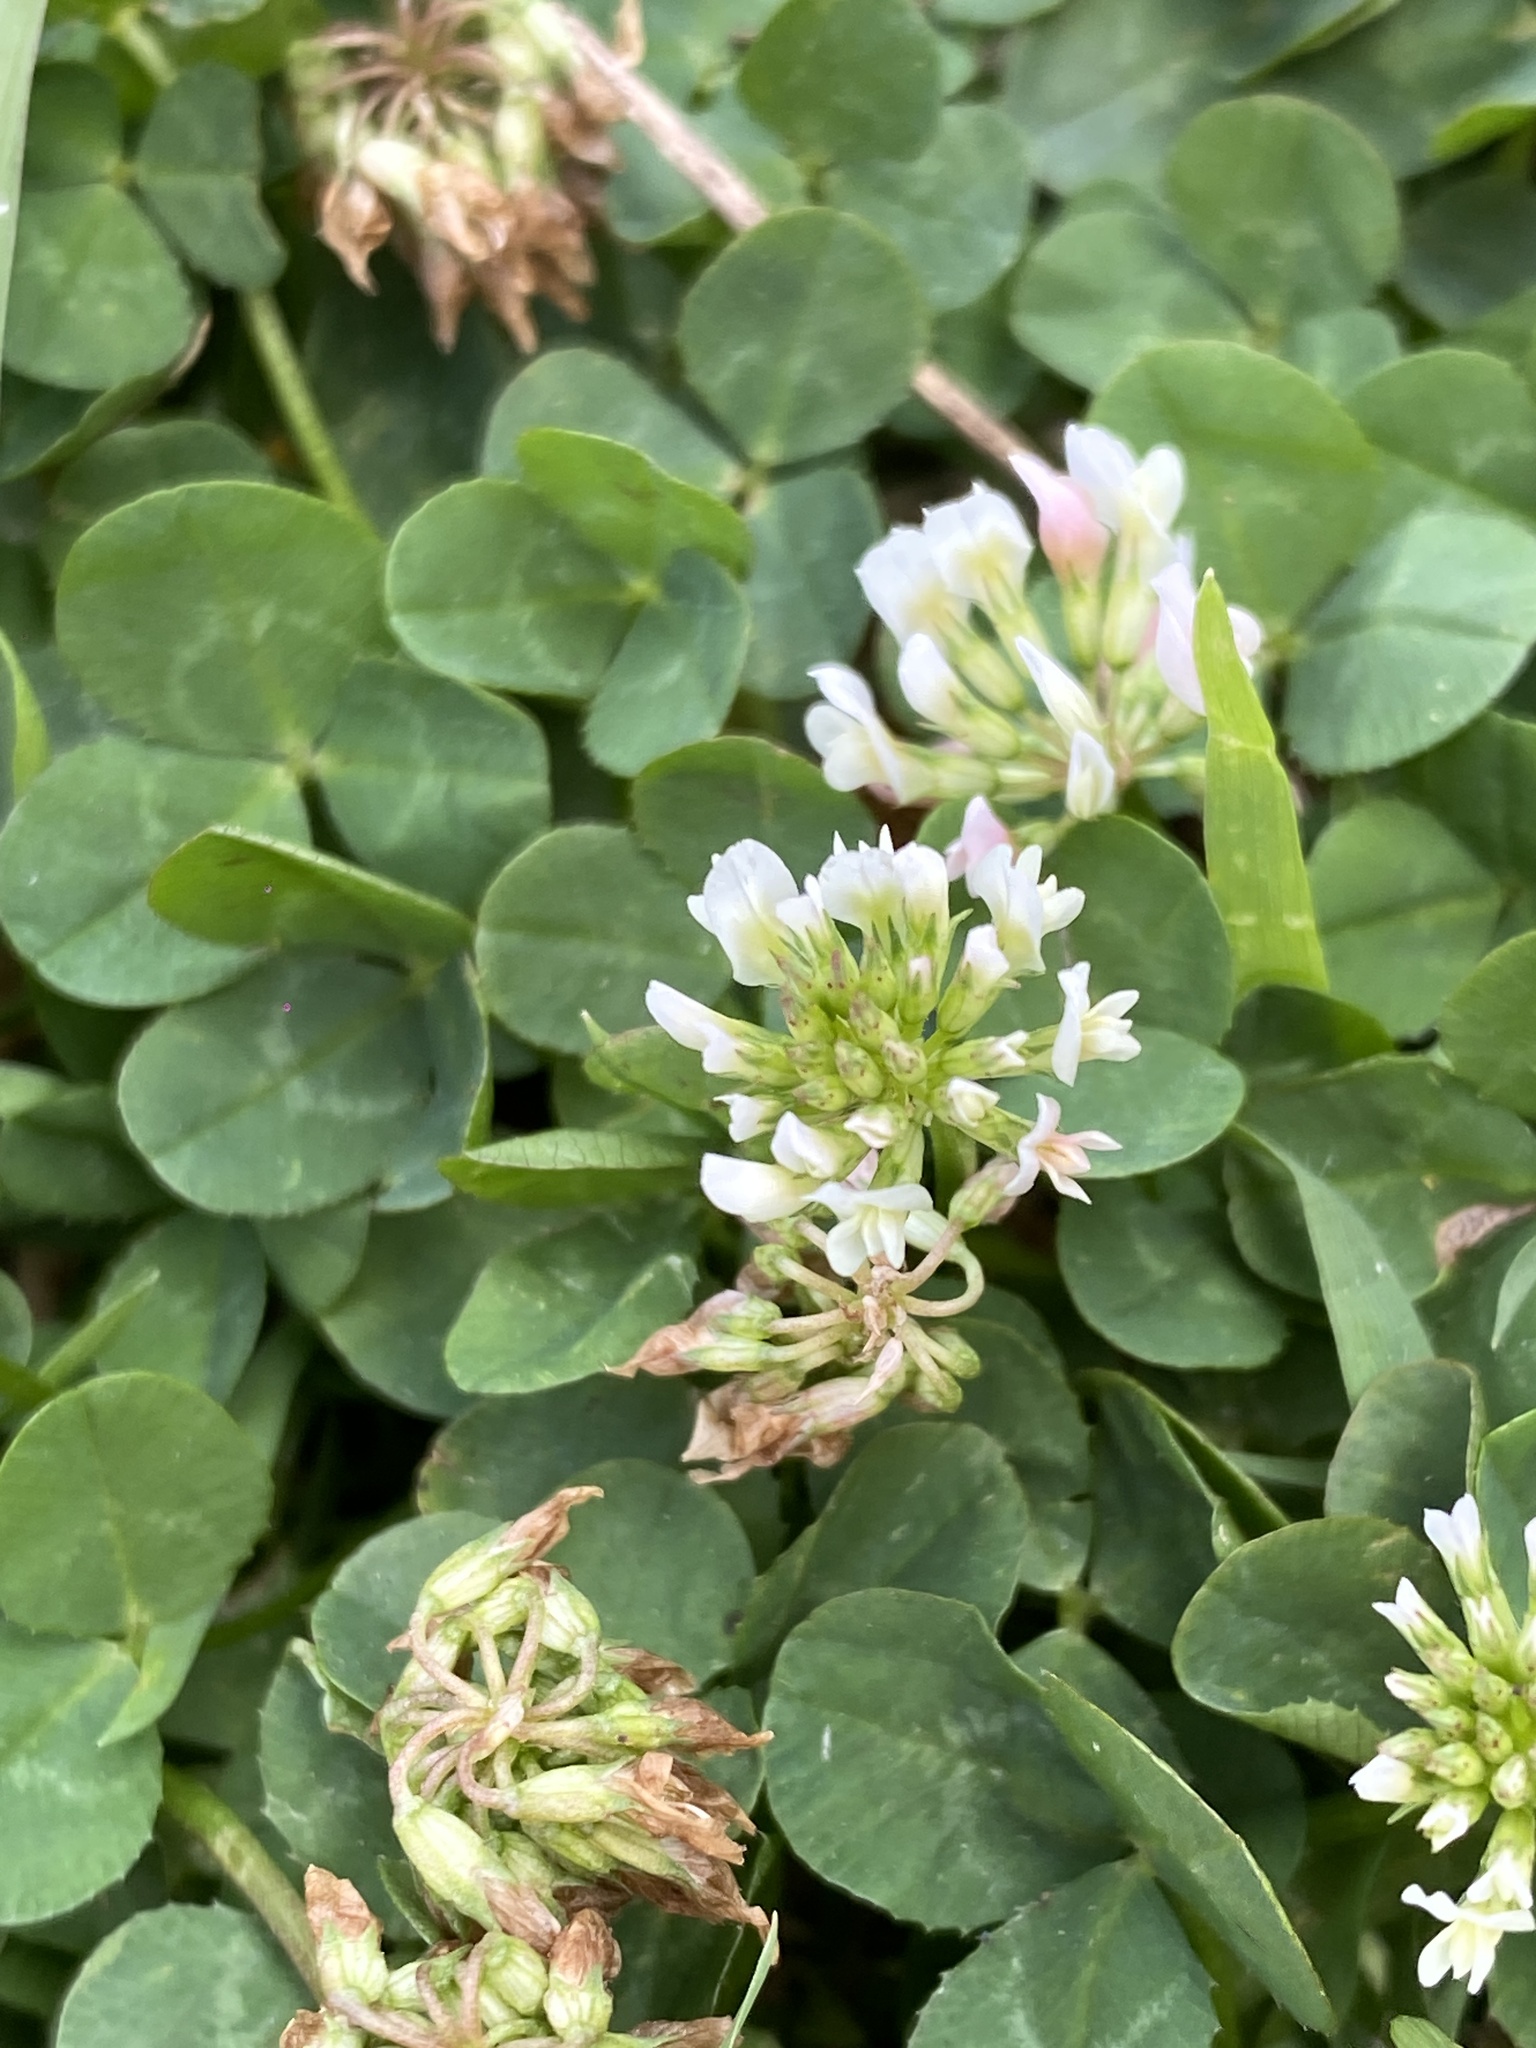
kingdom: Plantae
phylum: Tracheophyta
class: Magnoliopsida
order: Fabales
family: Fabaceae
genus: Trifolium
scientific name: Trifolium repens
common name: White clover
